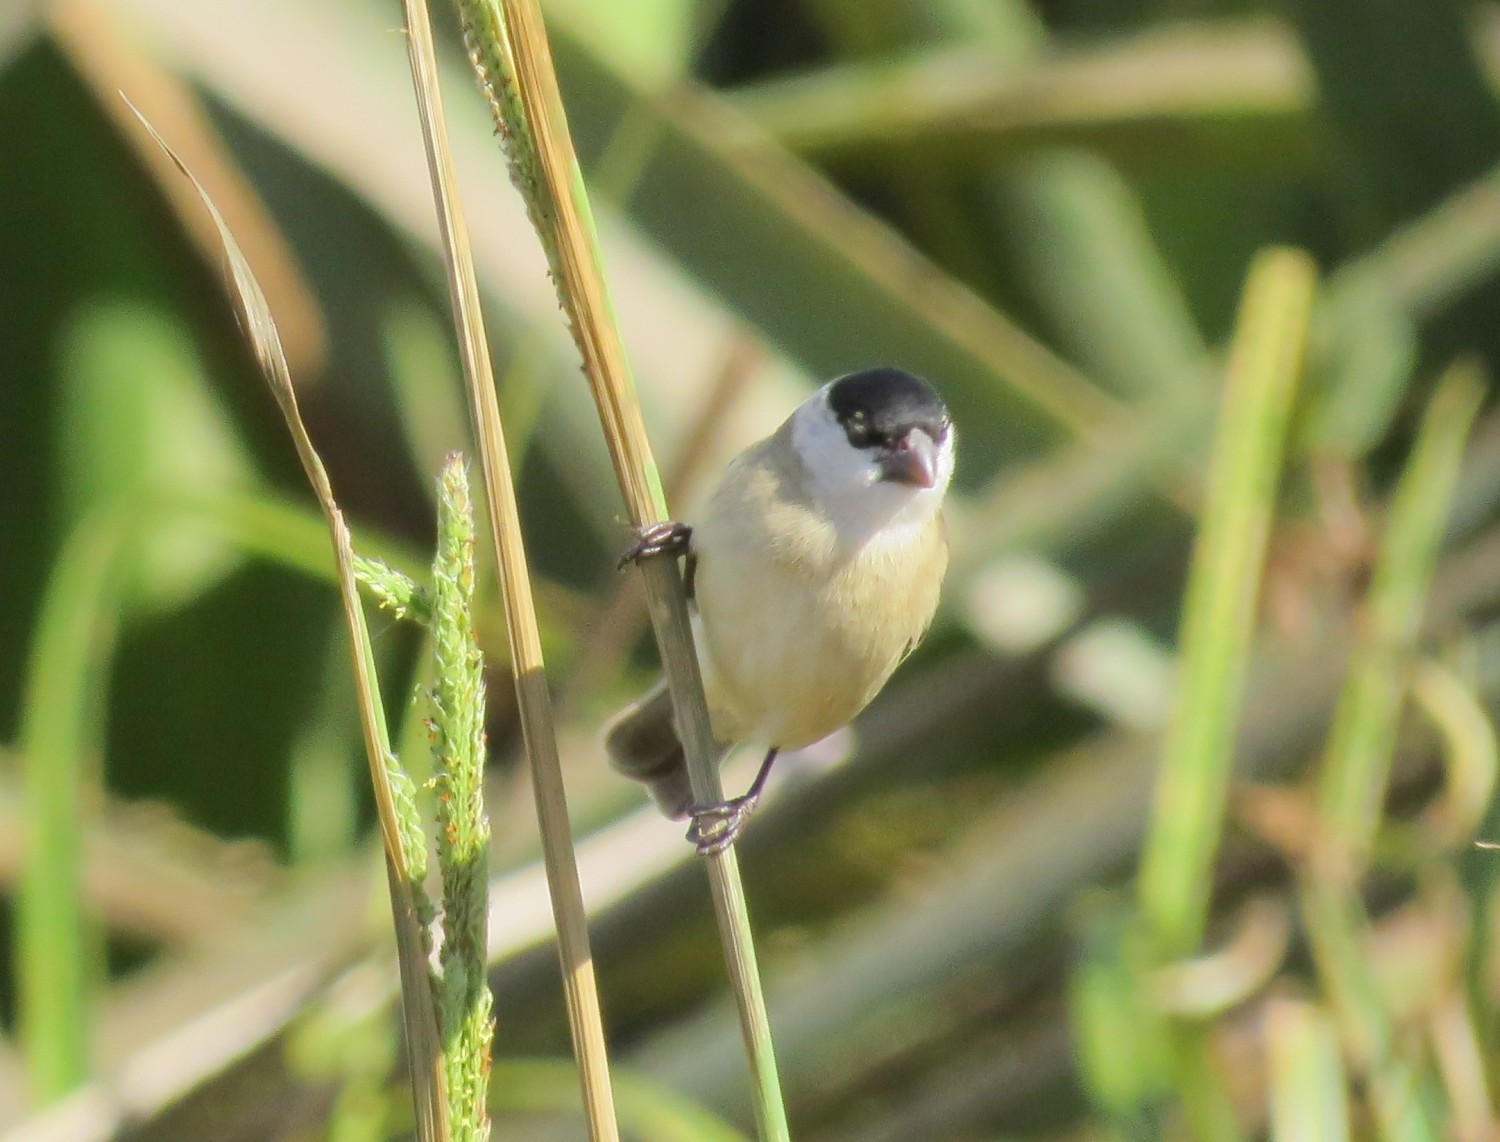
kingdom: Animalia
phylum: Chordata
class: Aves
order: Passeriformes
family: Thraupidae
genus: Sporophila
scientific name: Sporophila pileata
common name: Pearly-bellied seedeater
